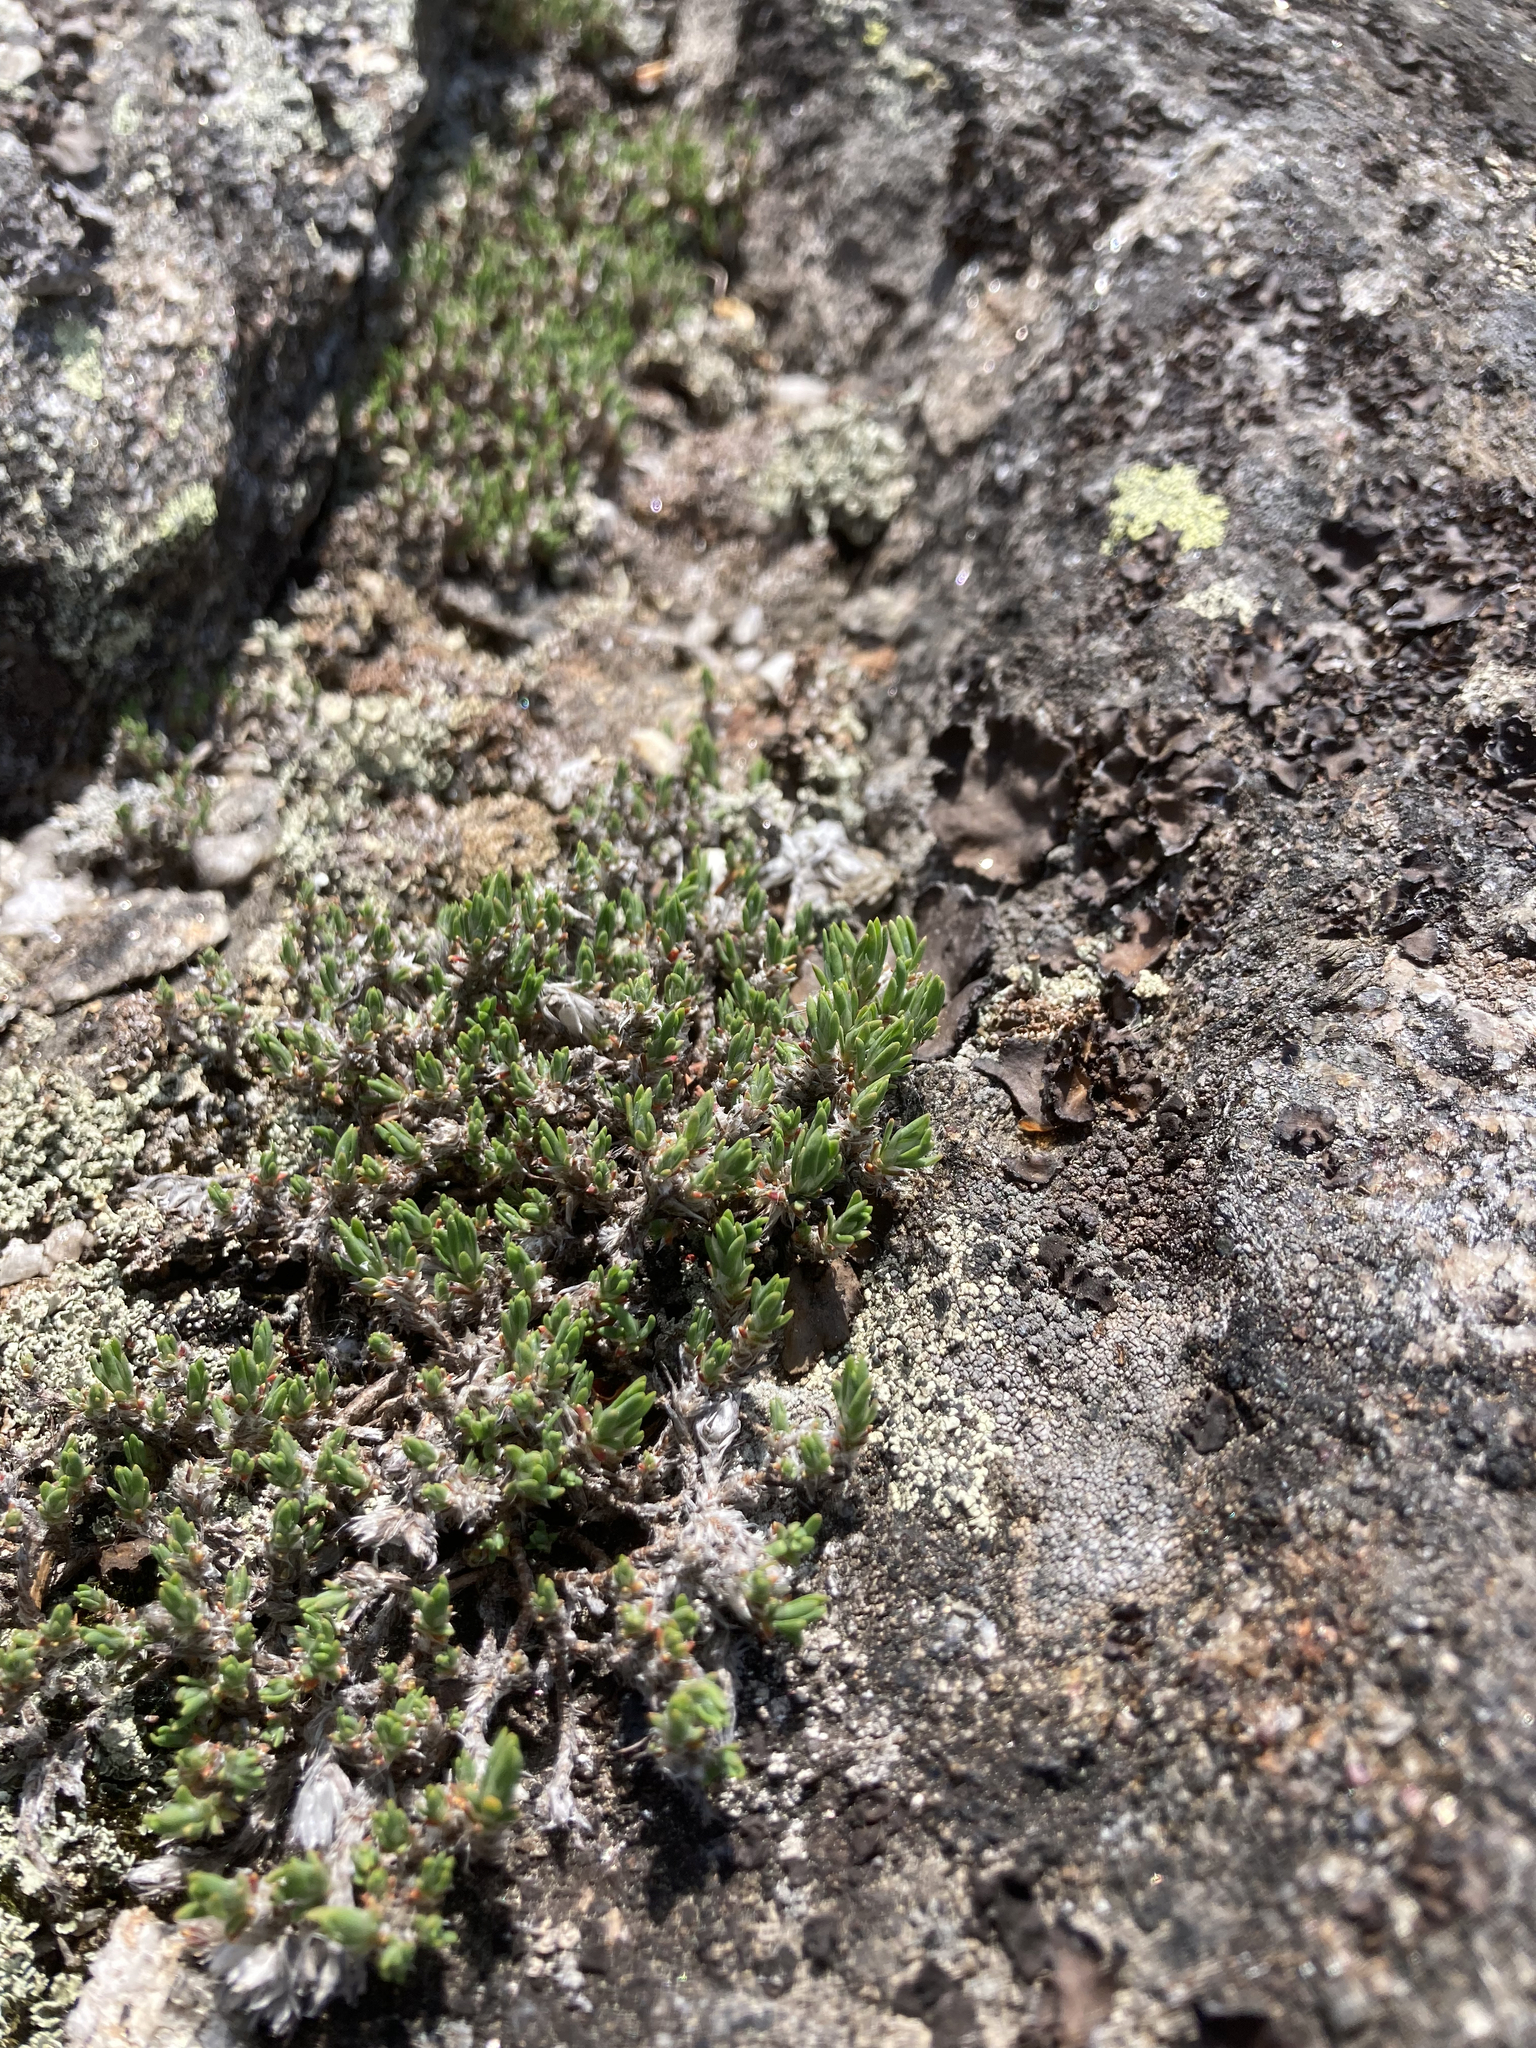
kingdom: Plantae
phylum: Tracheophyta
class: Magnoliopsida
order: Caryophyllales
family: Caryophyllaceae
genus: Paronychia
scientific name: Paronychia argyrocoma
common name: Silverling
